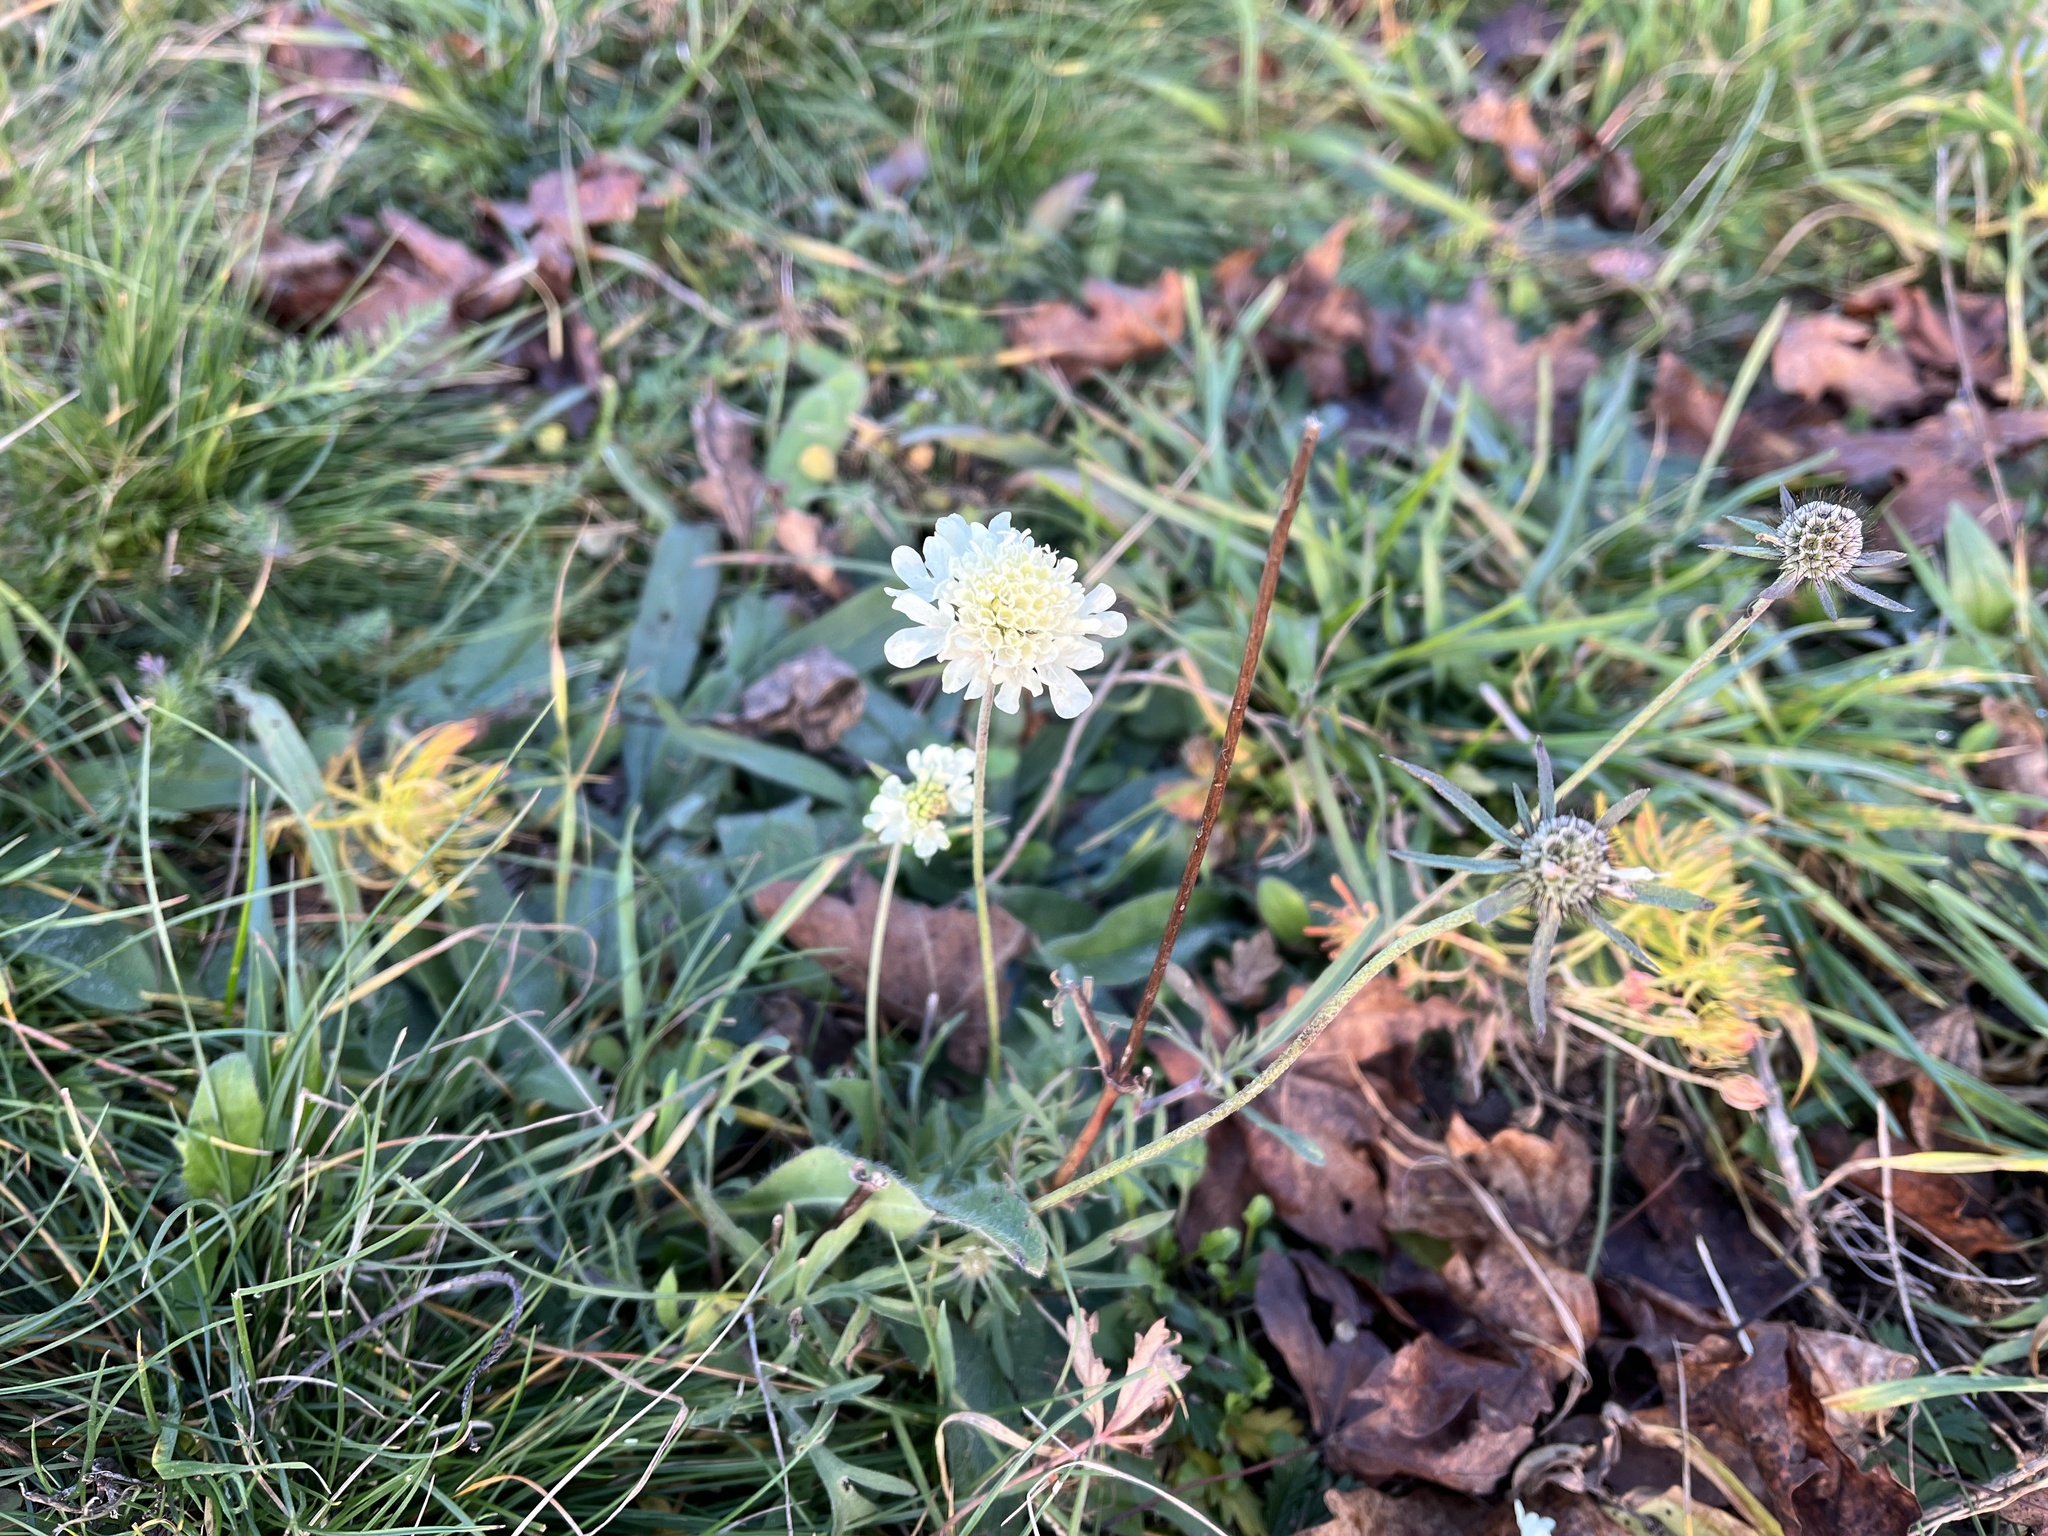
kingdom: Plantae
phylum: Tracheophyta
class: Magnoliopsida
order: Dipsacales
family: Caprifoliaceae
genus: Scabiosa
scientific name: Scabiosa ochroleuca
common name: Cream pincushions
